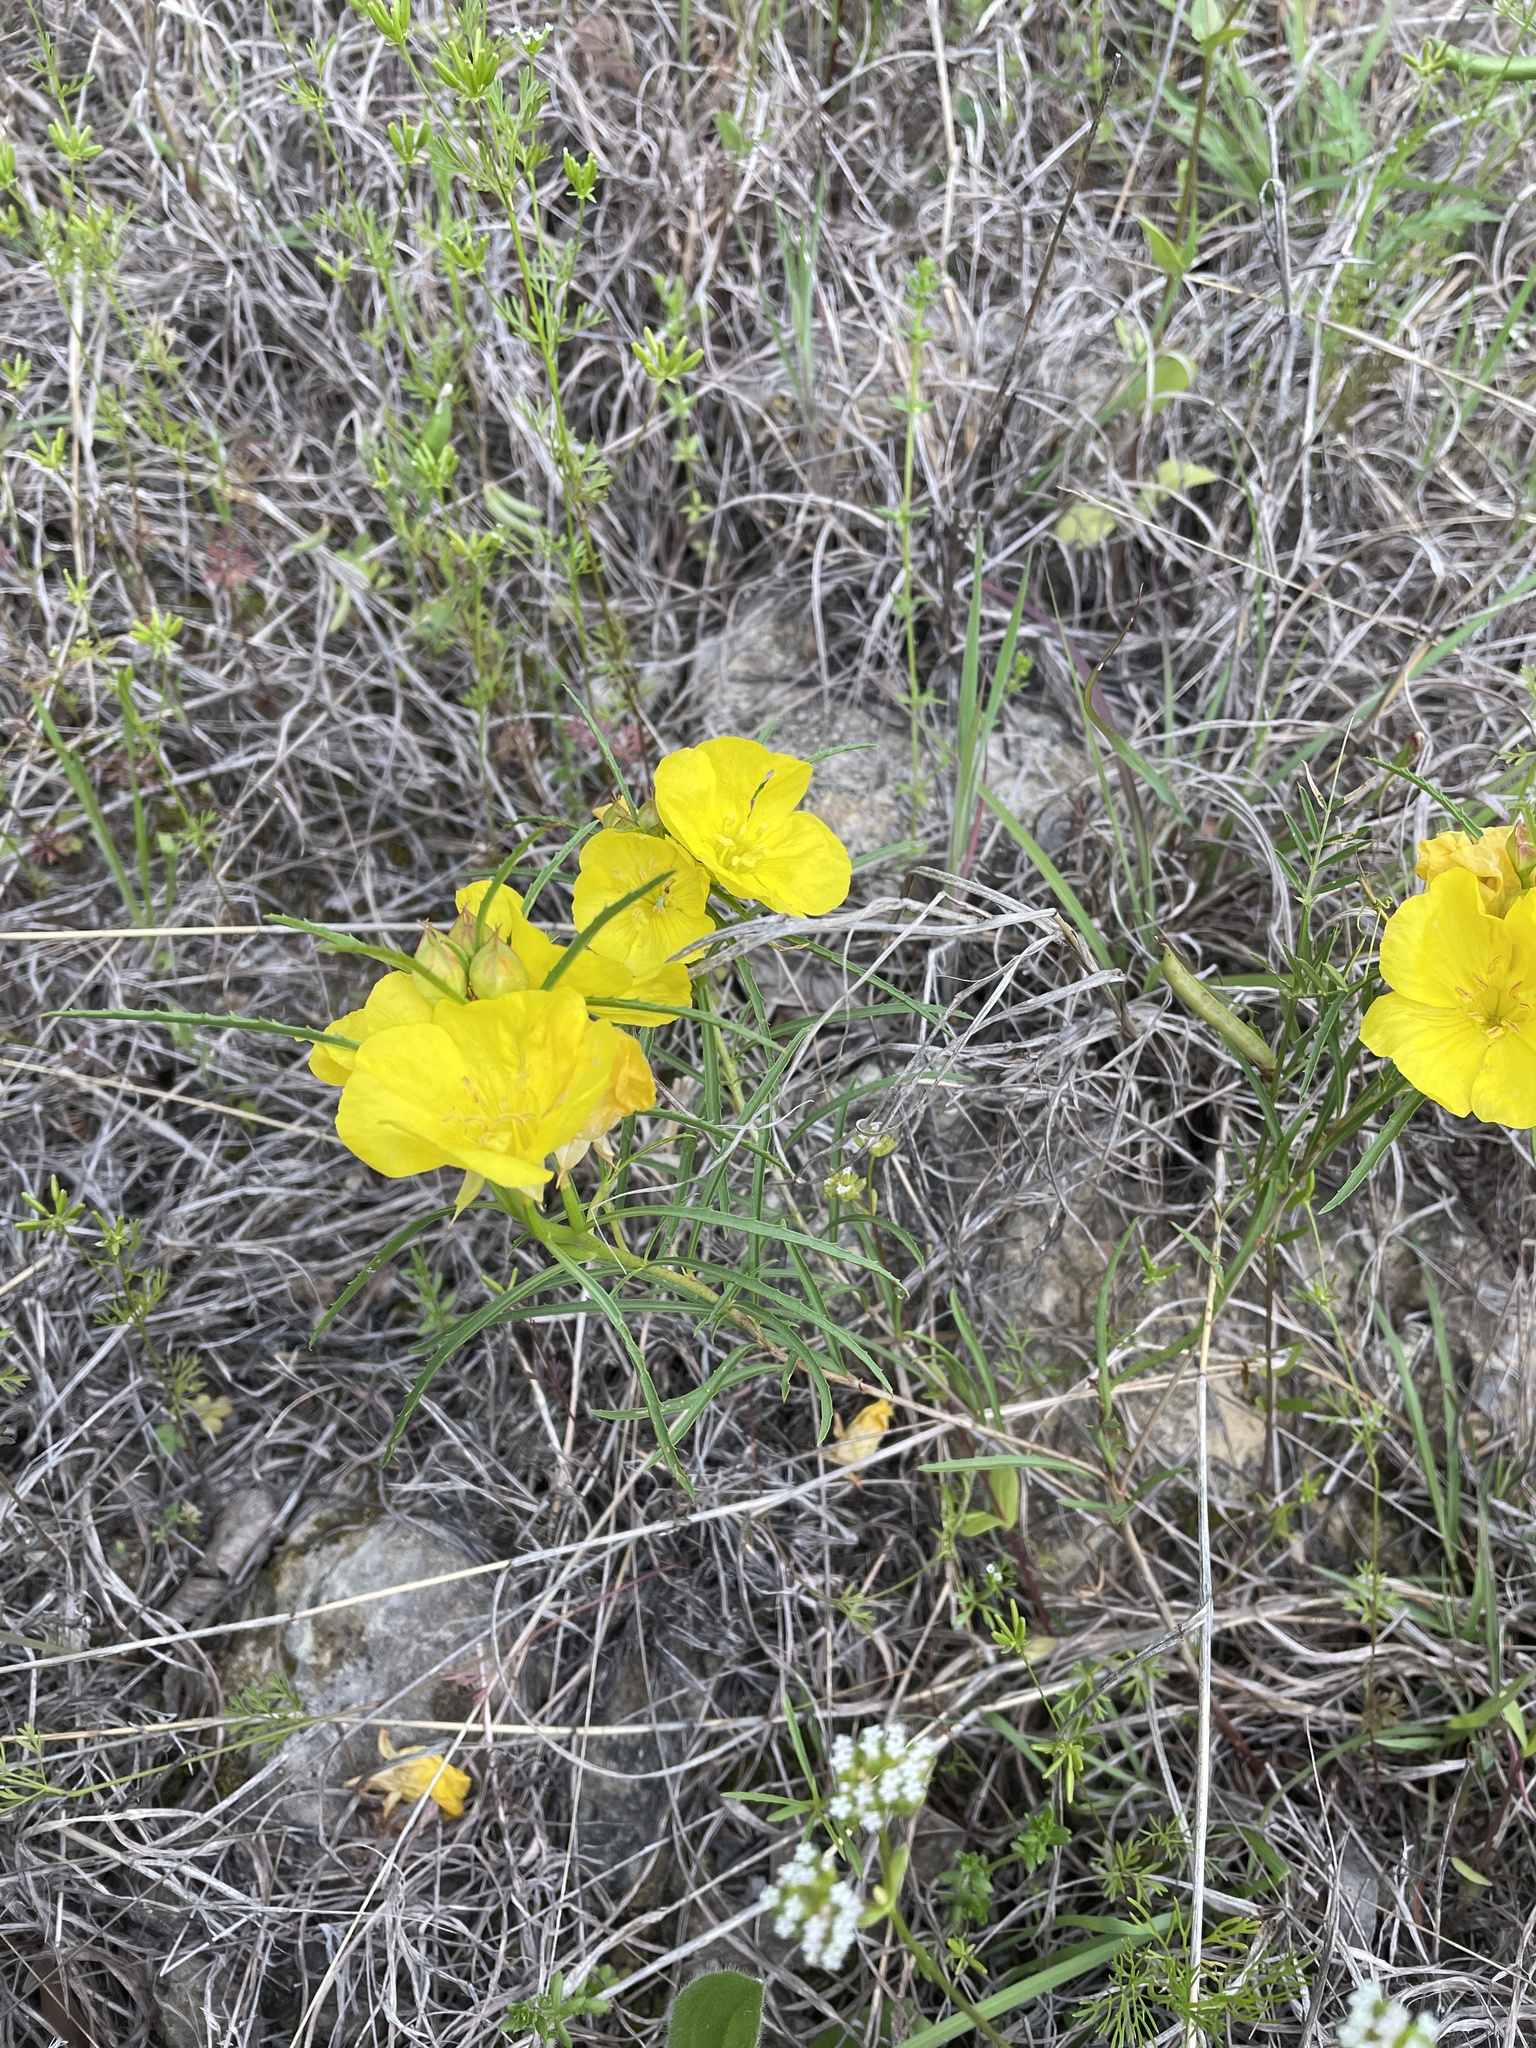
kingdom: Plantae
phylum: Tracheophyta
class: Magnoliopsida
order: Myrtales
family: Onagraceae
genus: Oenothera
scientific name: Oenothera
